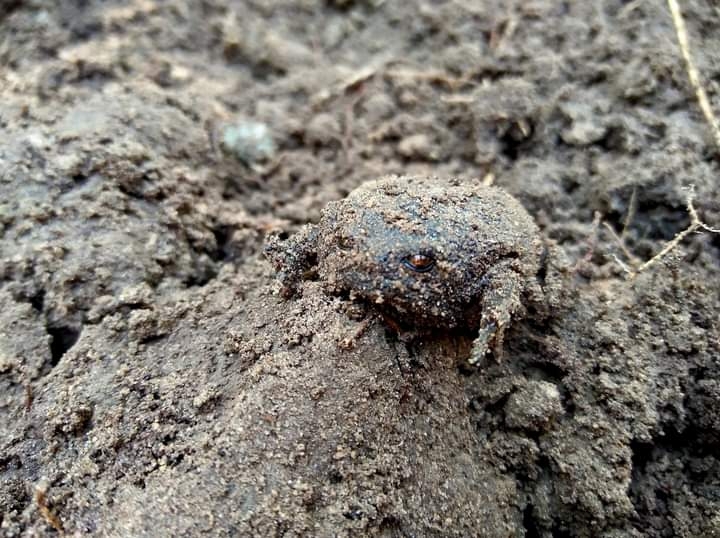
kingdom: Animalia
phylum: Chordata
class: Amphibia
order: Anura
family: Brevicipitidae
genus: Breviceps
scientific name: Breviceps fuscus
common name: Black rain frog
